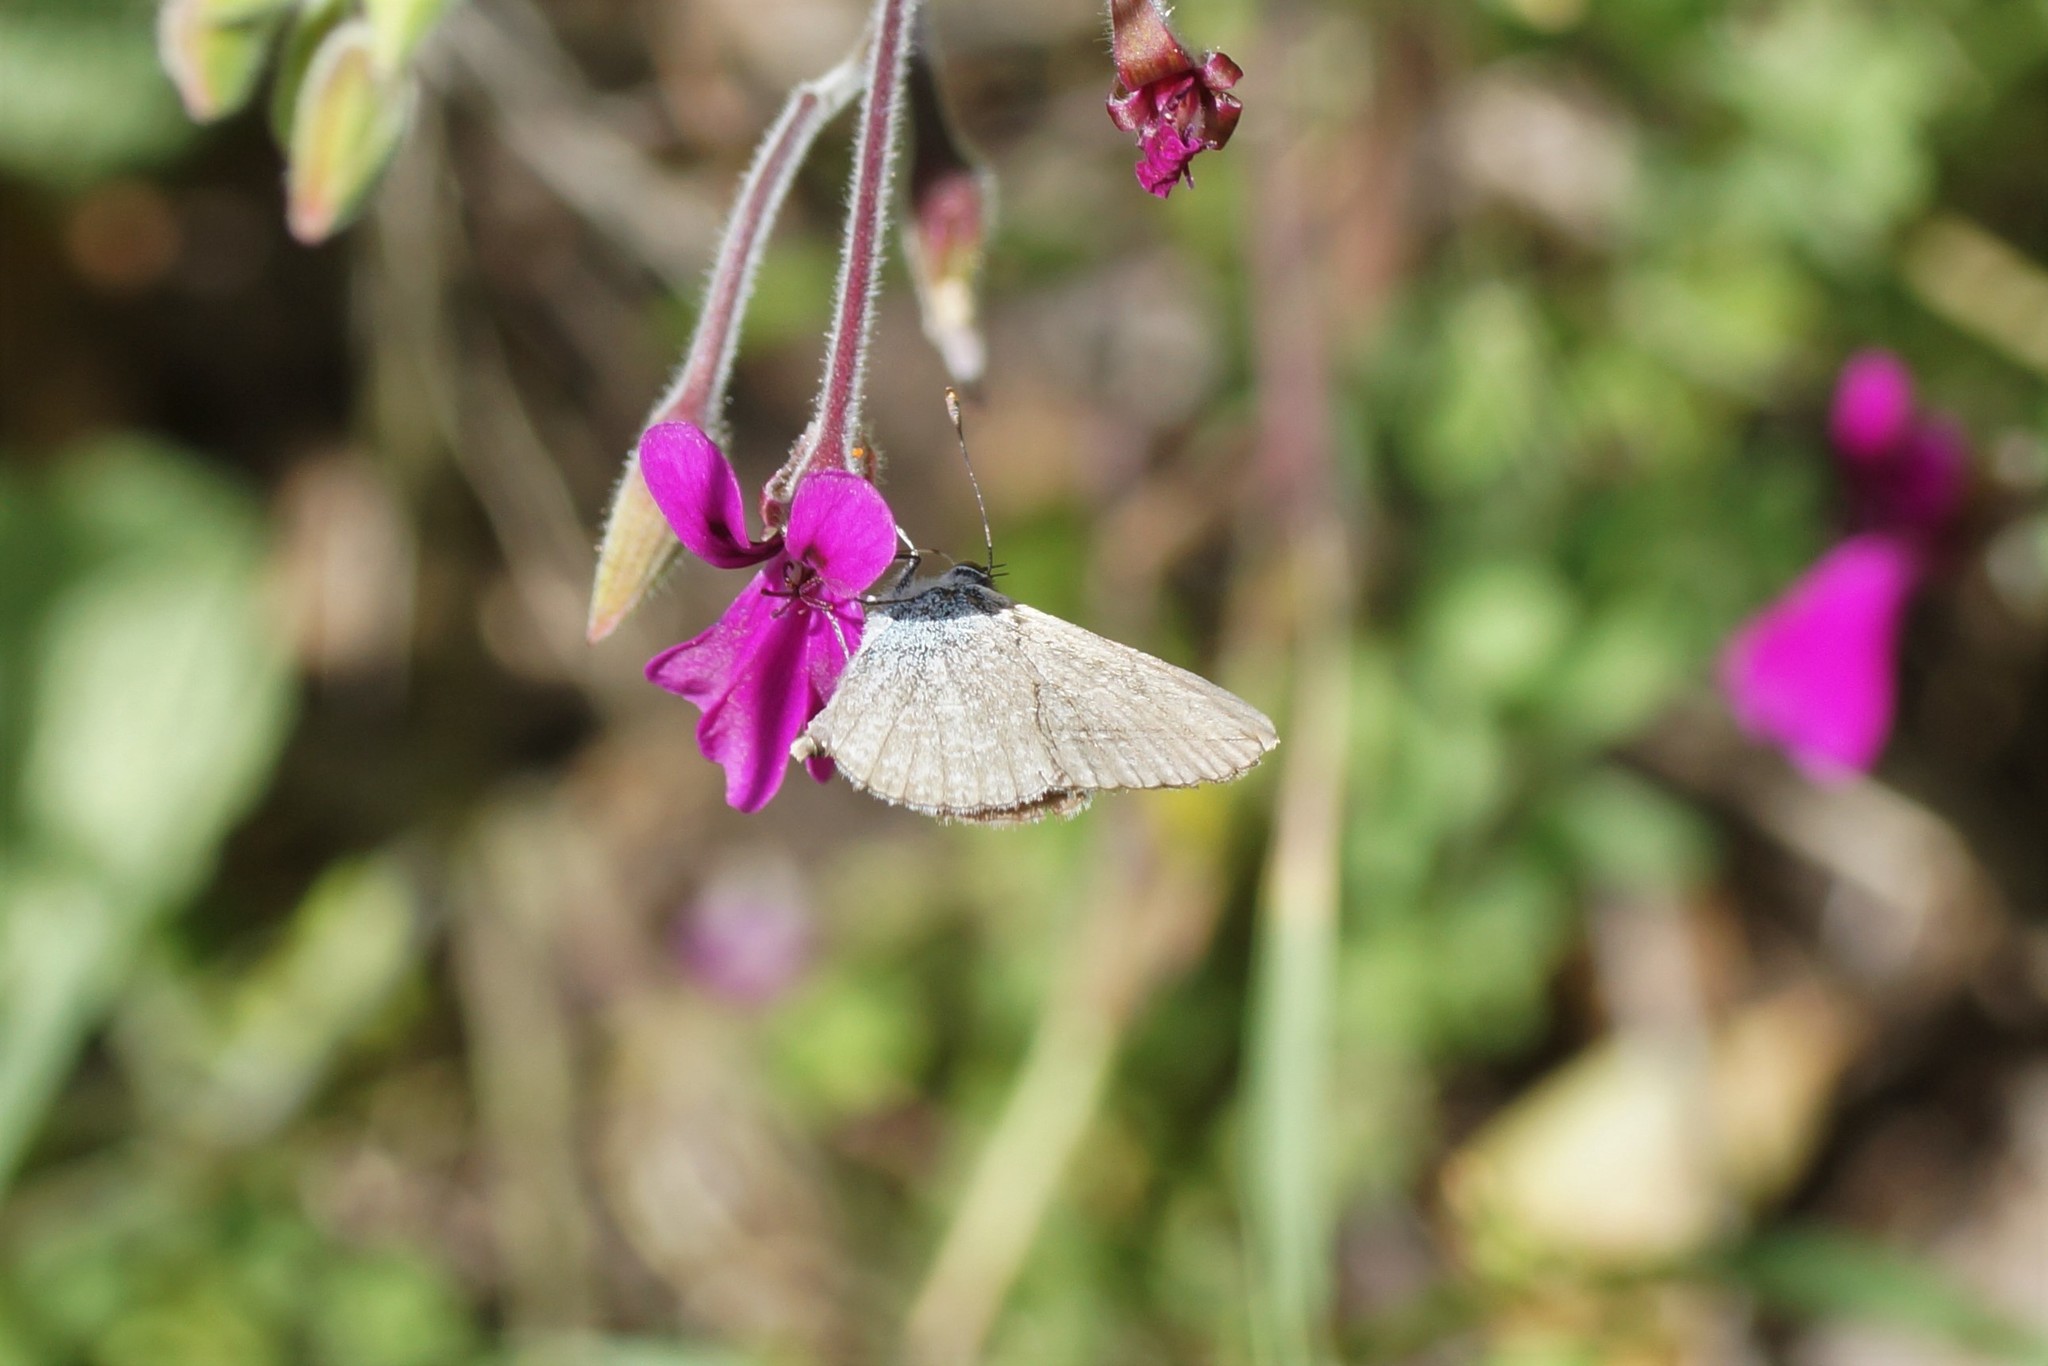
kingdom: Animalia
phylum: Arthropoda
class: Insecta
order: Lepidoptera
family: Lycaenidae
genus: Zizina
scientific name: Zizina labradus
